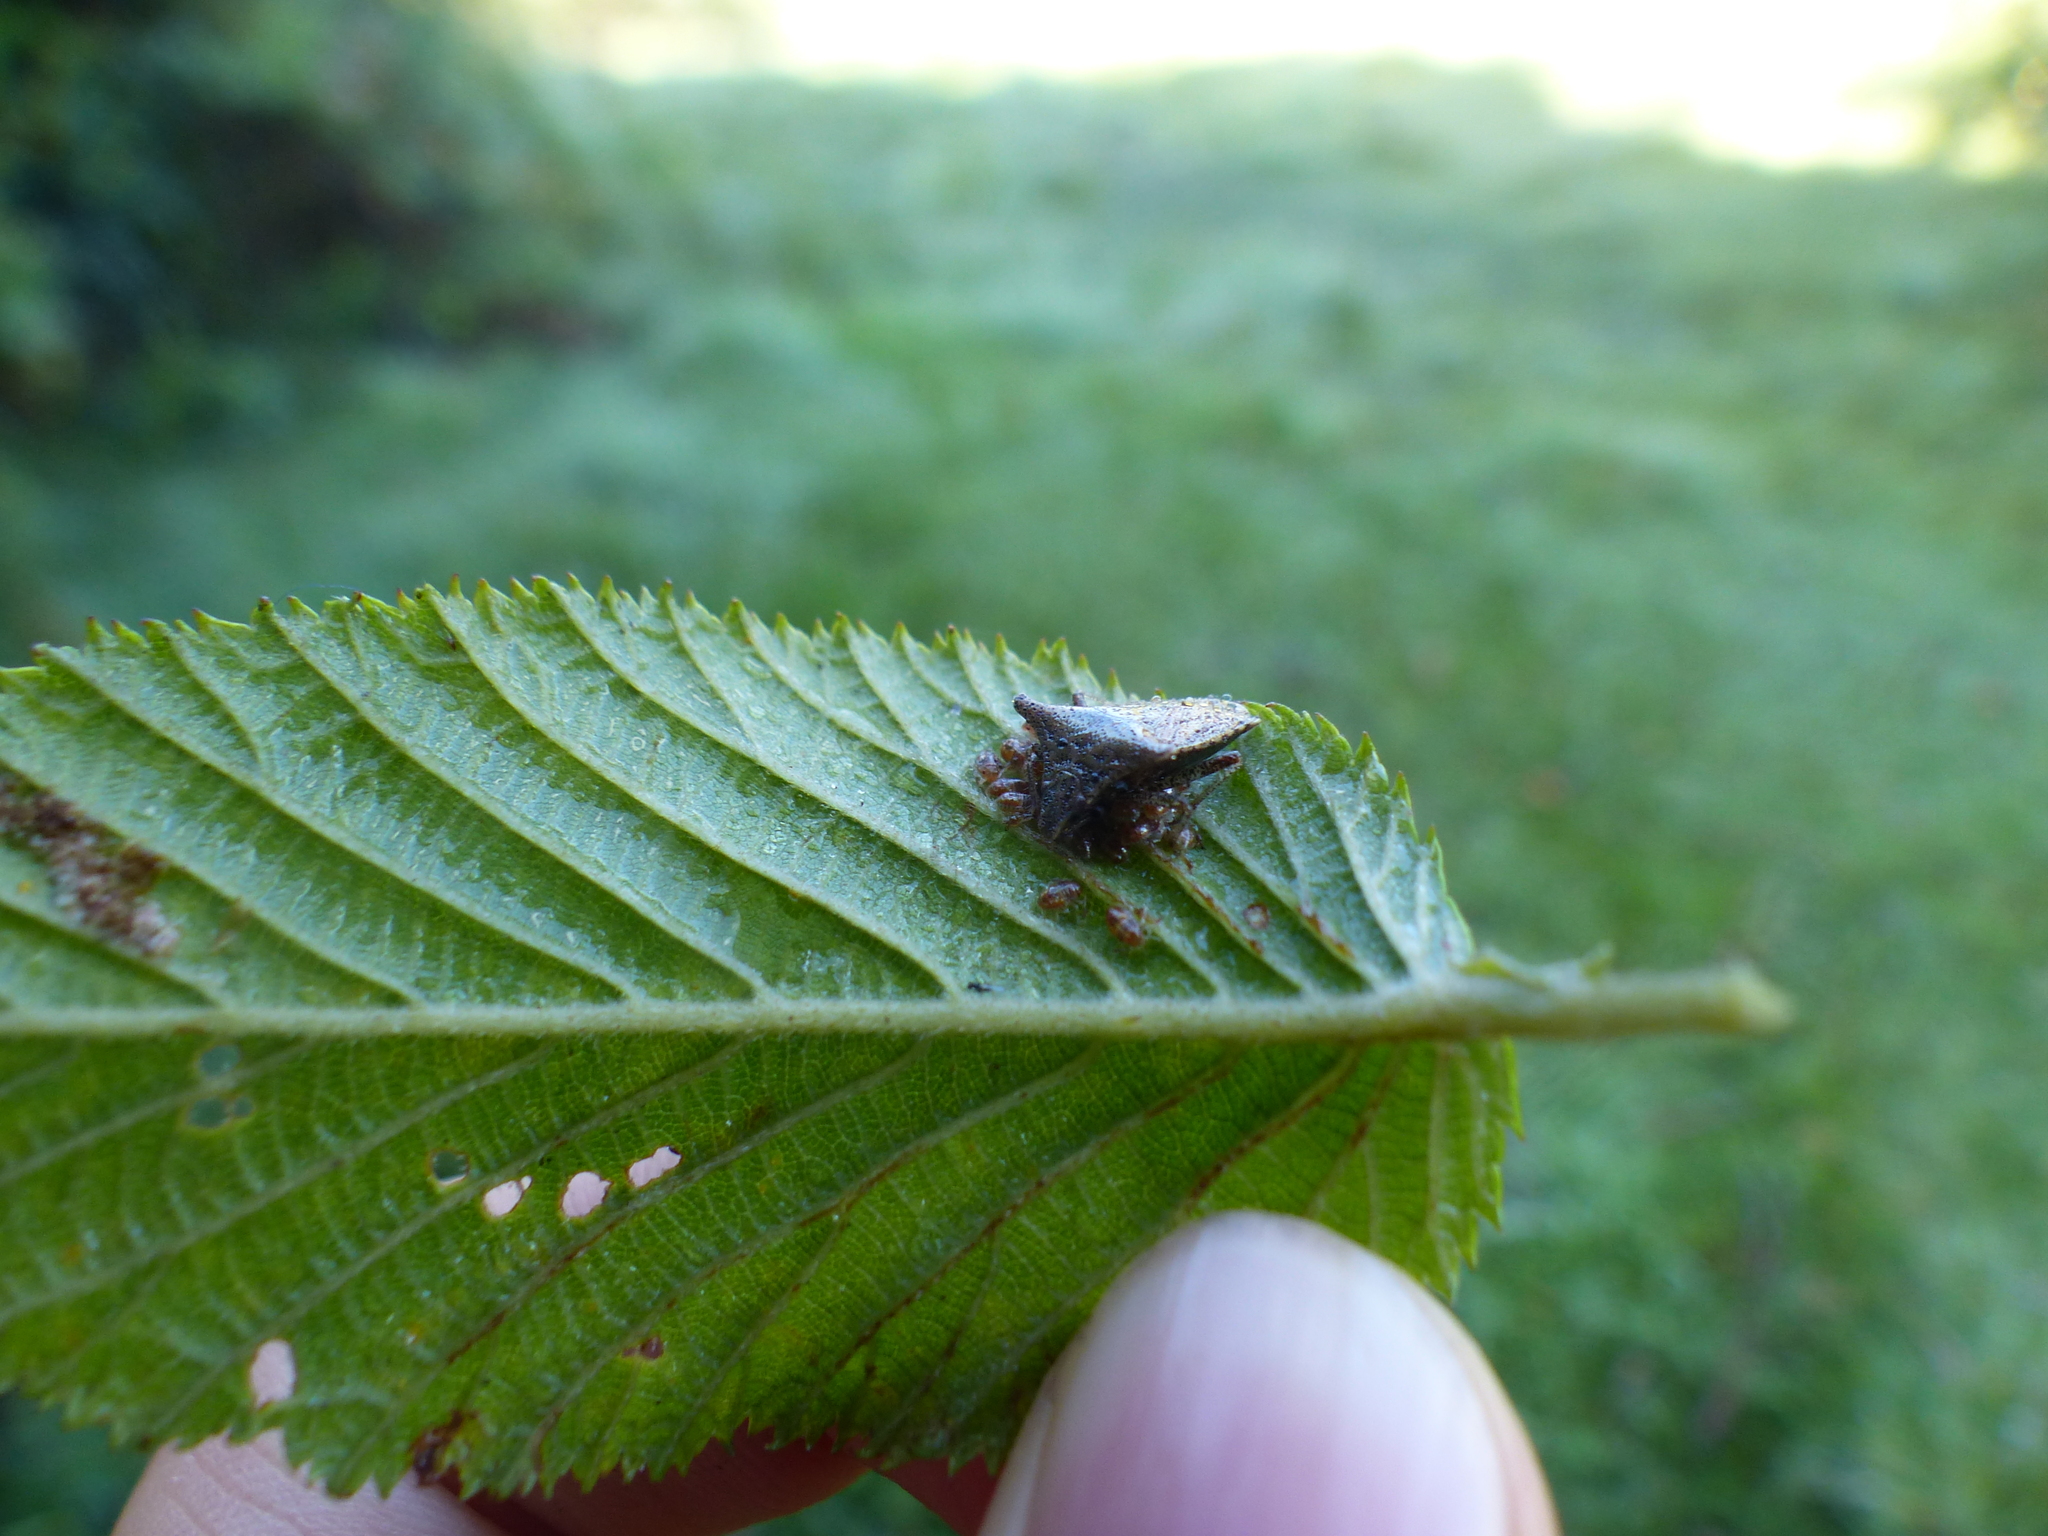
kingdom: Animalia
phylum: Arthropoda
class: Insecta
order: Hemiptera
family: Acanthosomatidae
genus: Bebaeus
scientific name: Bebaeus punctipes
